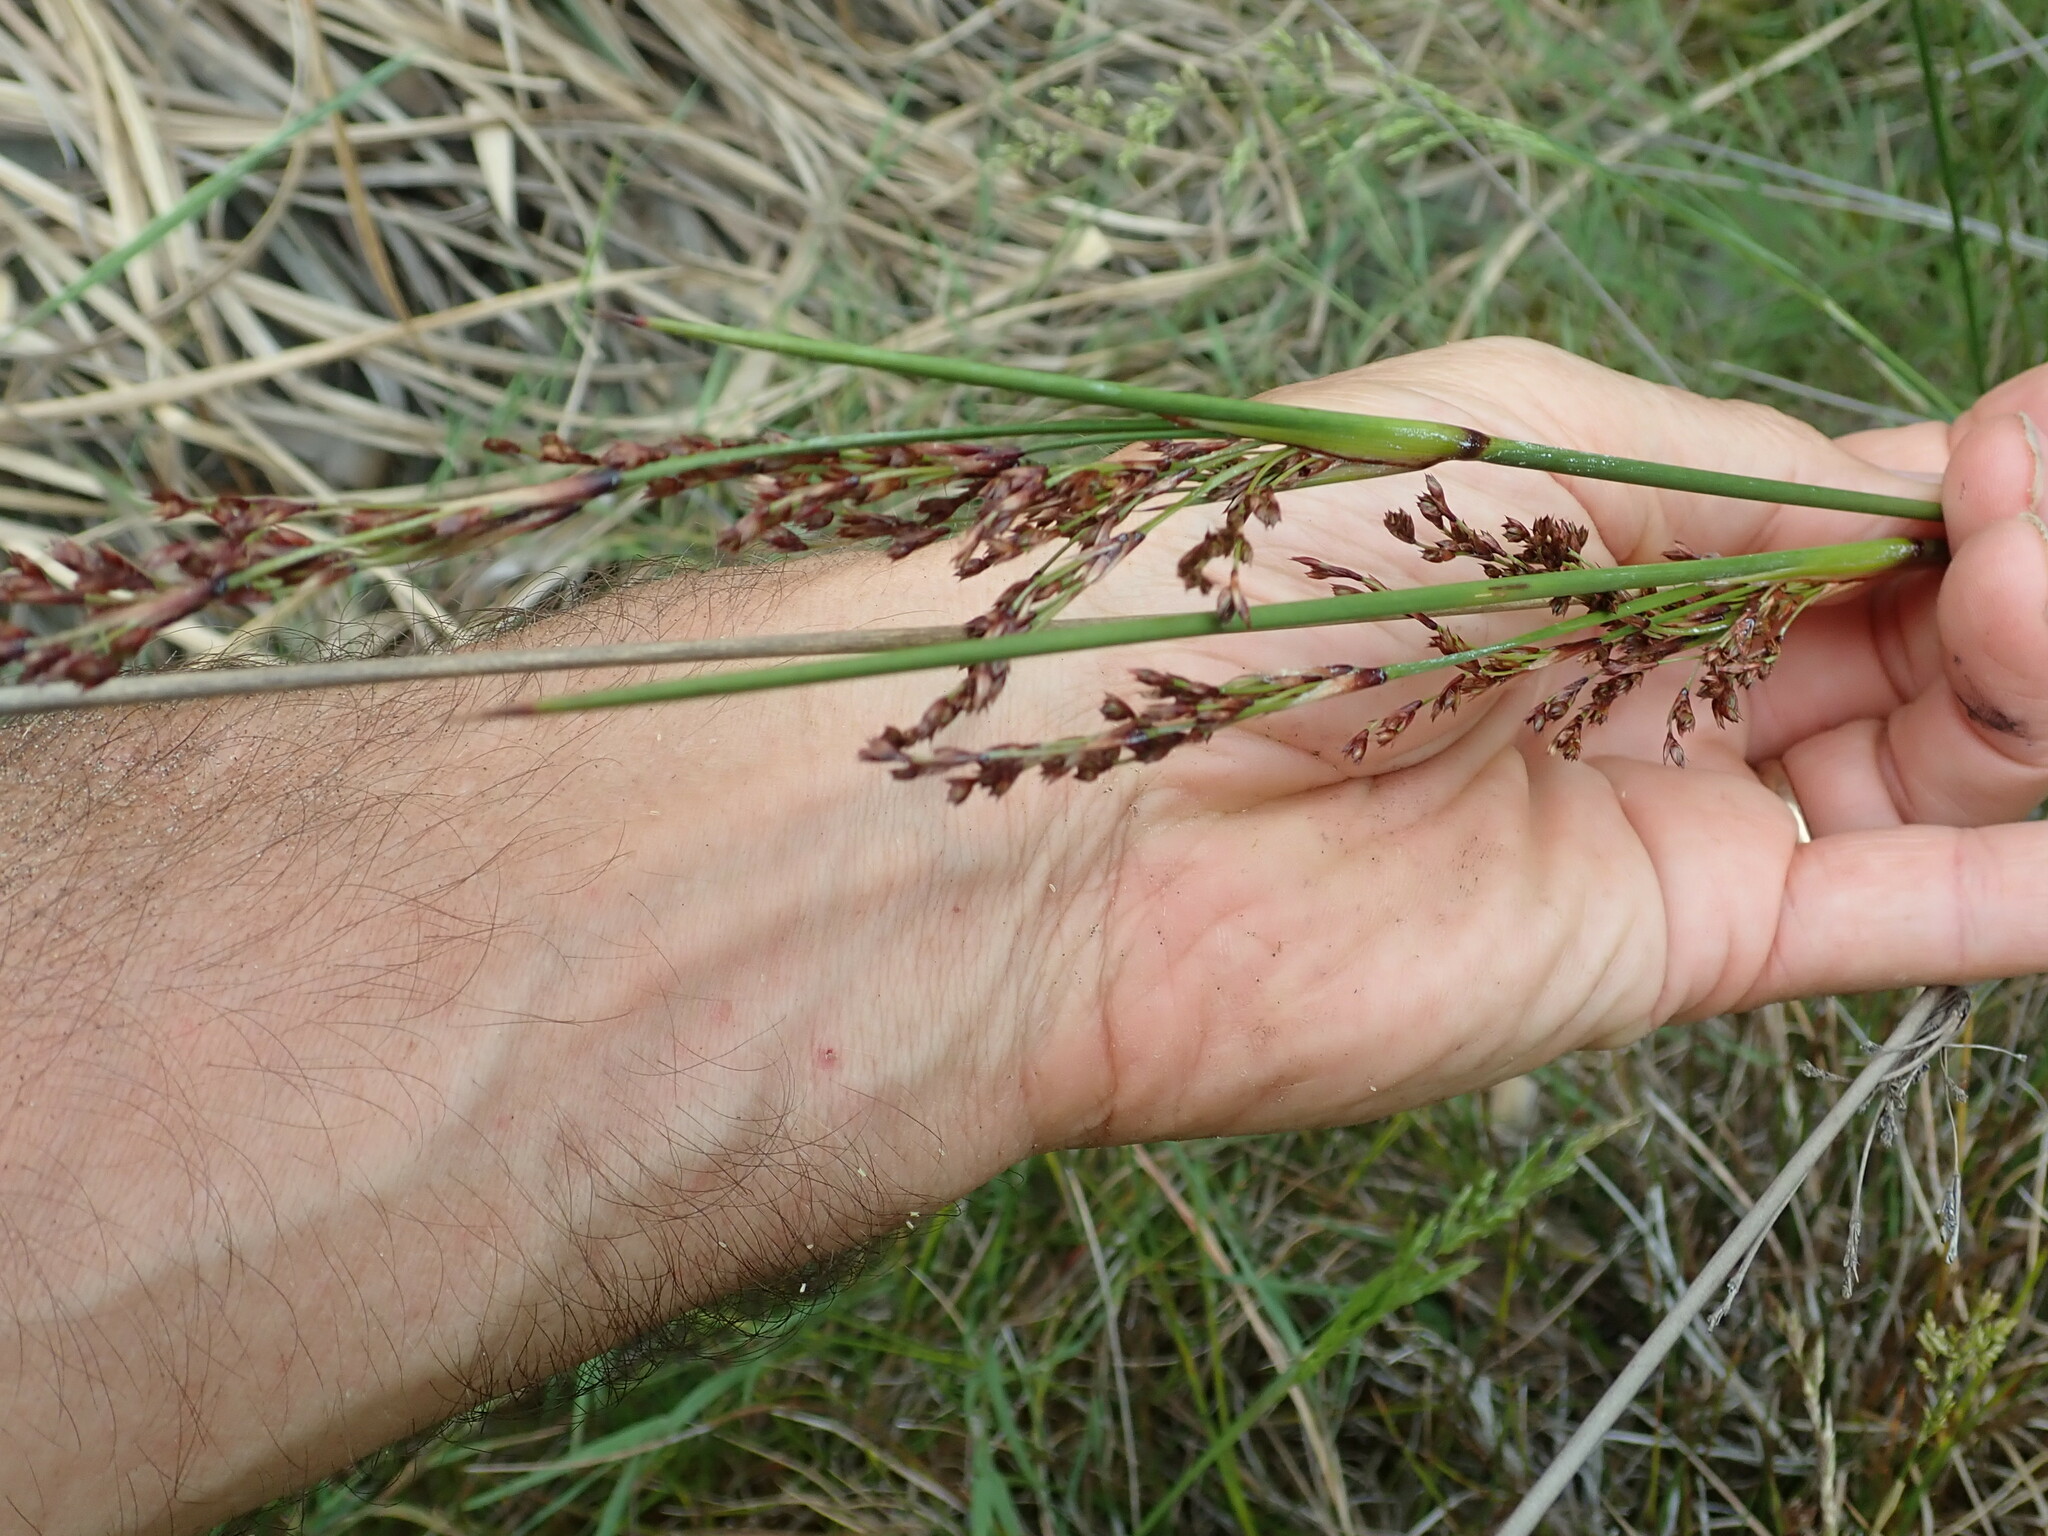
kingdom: Plantae
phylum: Tracheophyta
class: Liliopsida
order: Poales
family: Juncaceae
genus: Juncus
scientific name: Juncus kraussii
